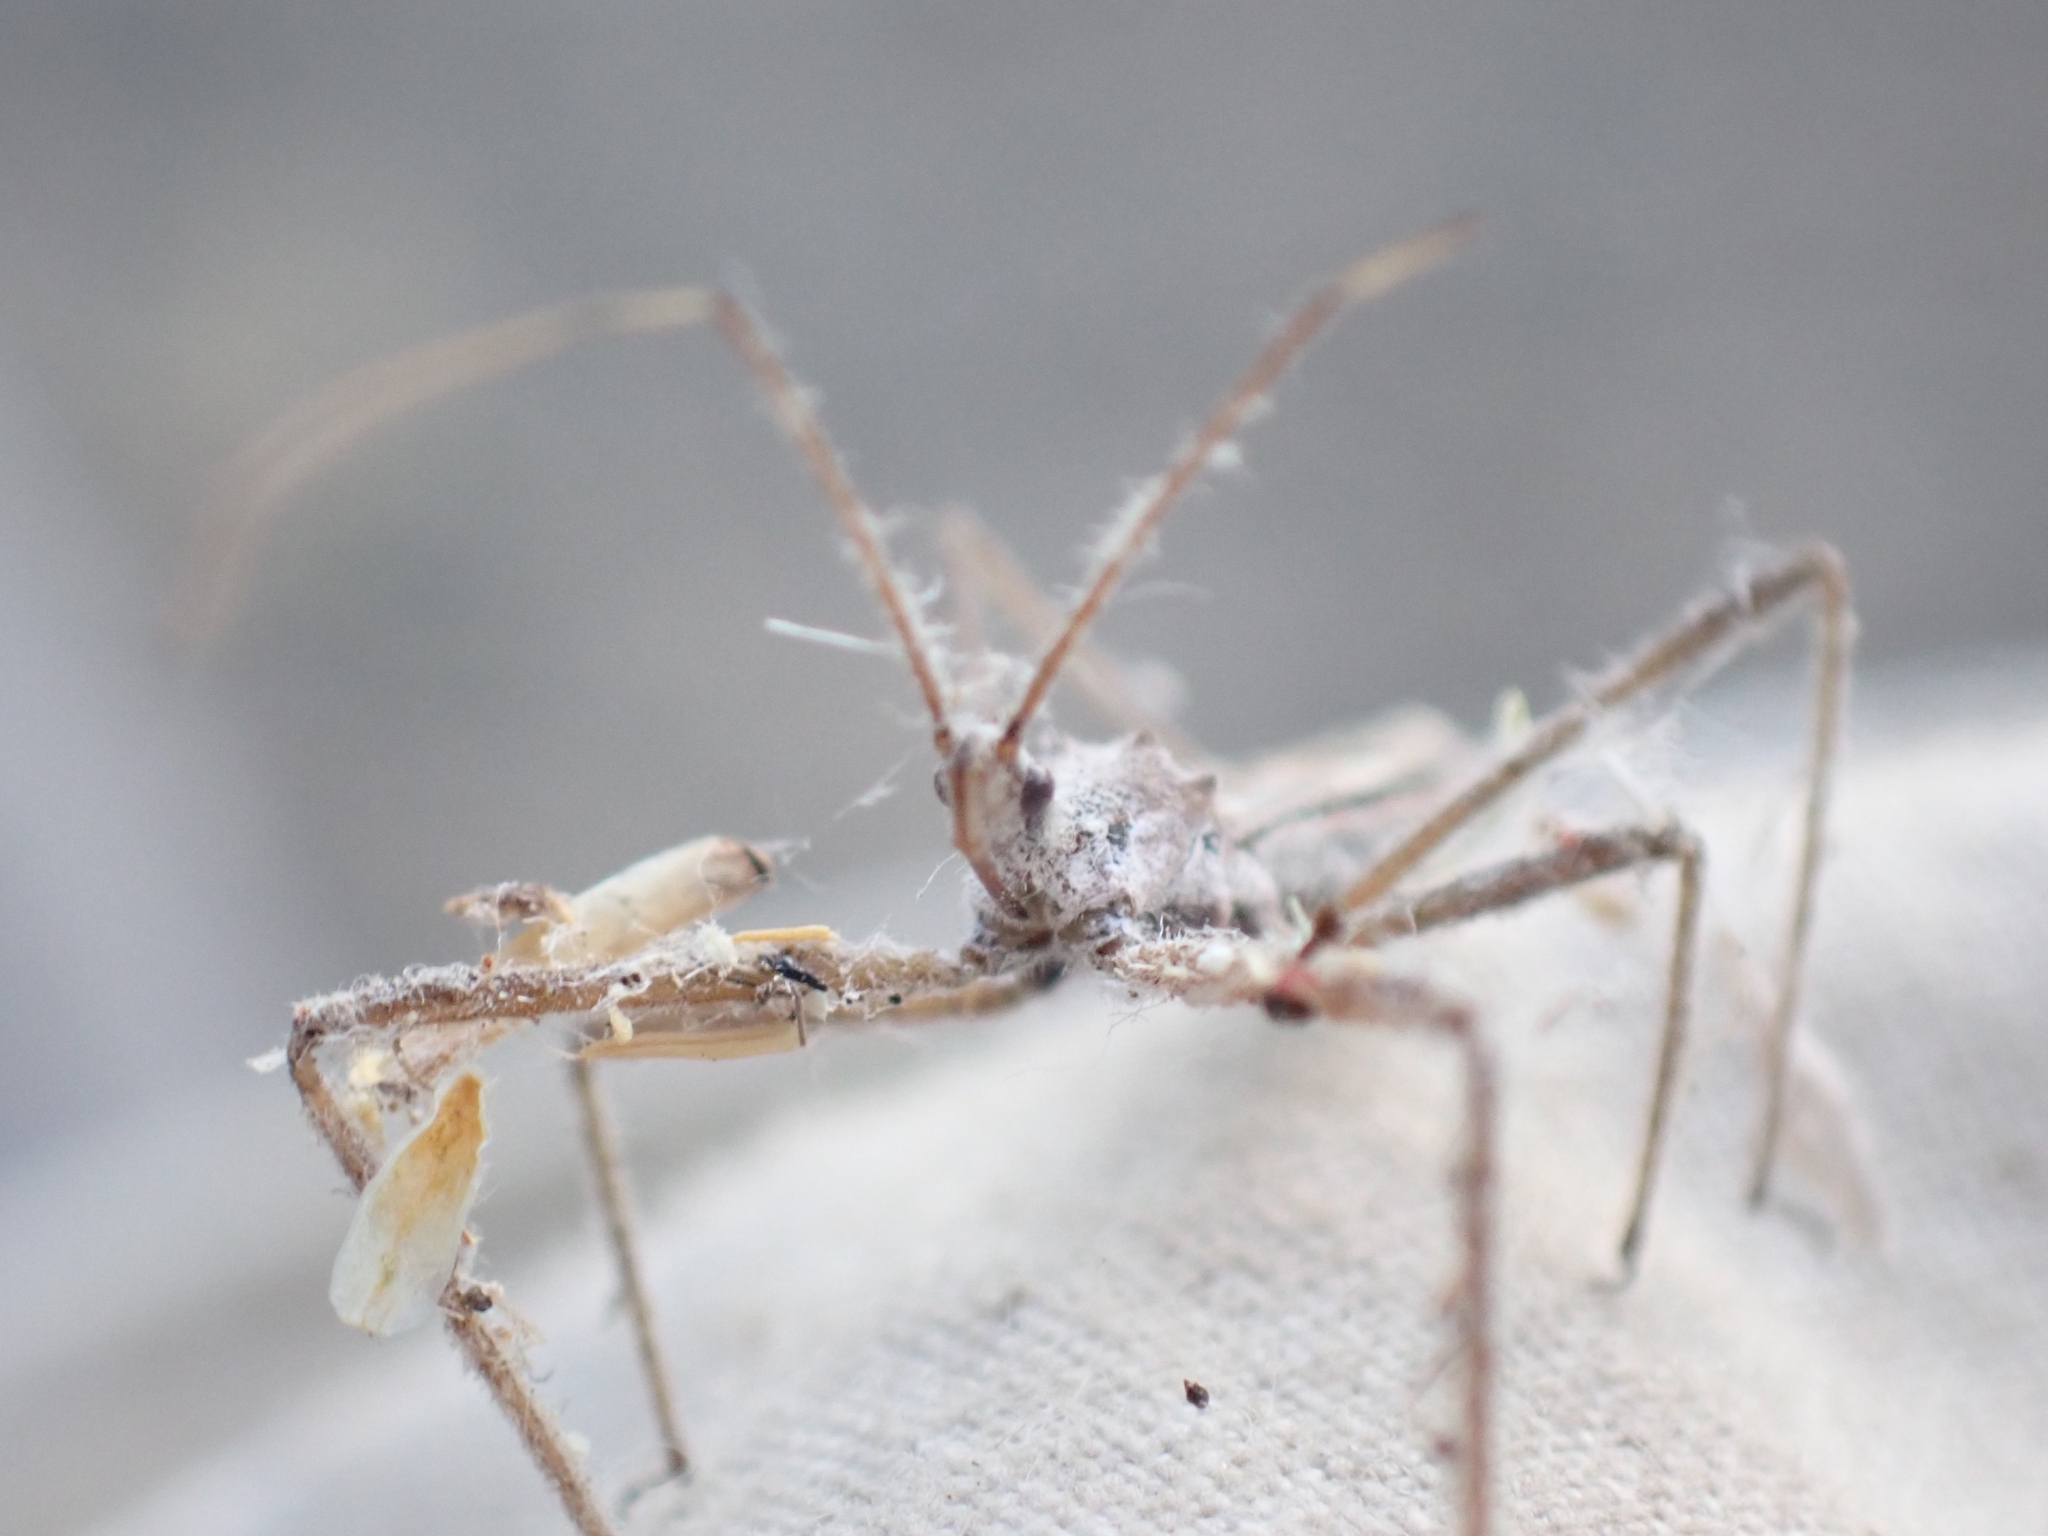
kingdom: Animalia
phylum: Arthropoda
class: Insecta
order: Hemiptera
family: Reduviidae
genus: Zelus
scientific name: Zelus tetracanthus
